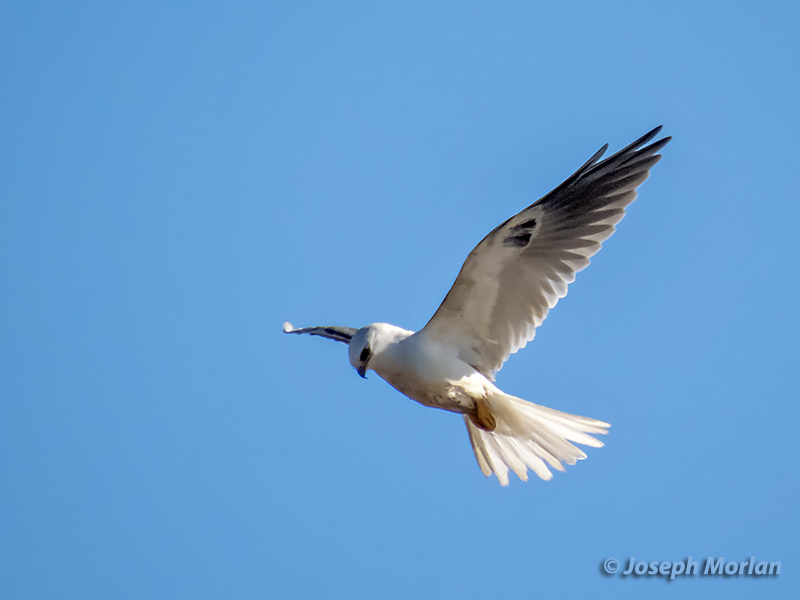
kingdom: Animalia
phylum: Chordata
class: Aves
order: Accipitriformes
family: Accipitridae
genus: Elanus
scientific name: Elanus leucurus
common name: White-tailed kite
